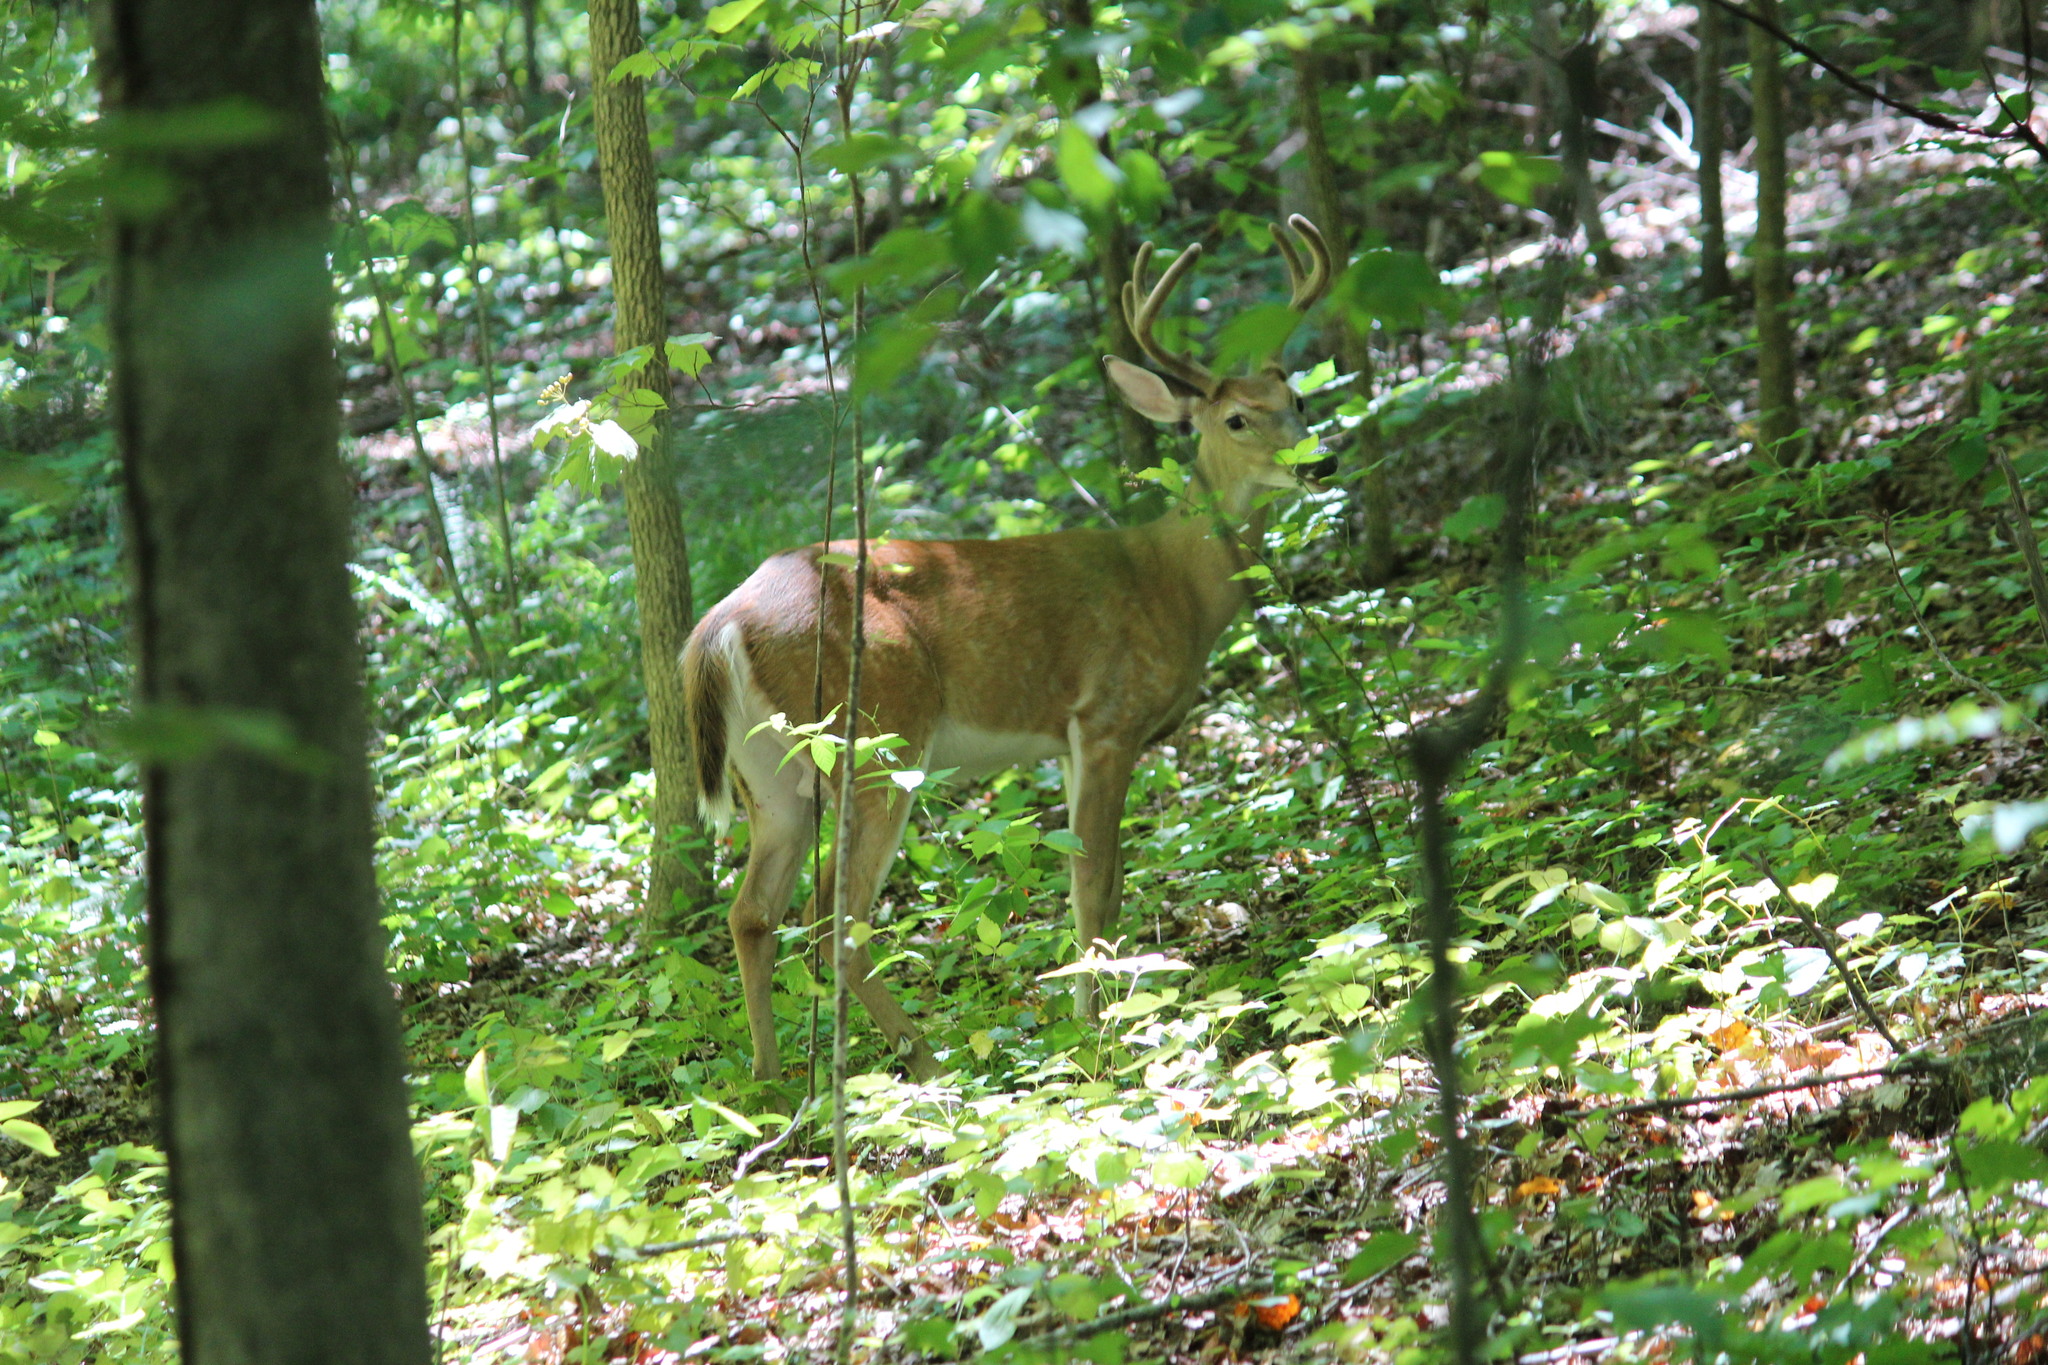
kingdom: Animalia
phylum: Chordata
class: Mammalia
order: Artiodactyla
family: Cervidae
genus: Odocoileus
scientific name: Odocoileus virginianus
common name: White-tailed deer
